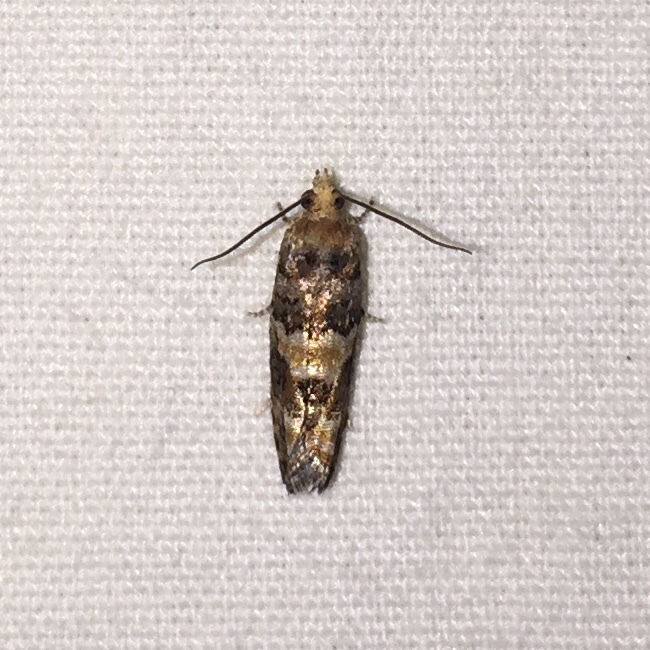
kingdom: Animalia
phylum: Arthropoda
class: Insecta
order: Lepidoptera
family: Tortricidae
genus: Eucopina
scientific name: Eucopina tocullionana
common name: White pinecone borer moth
